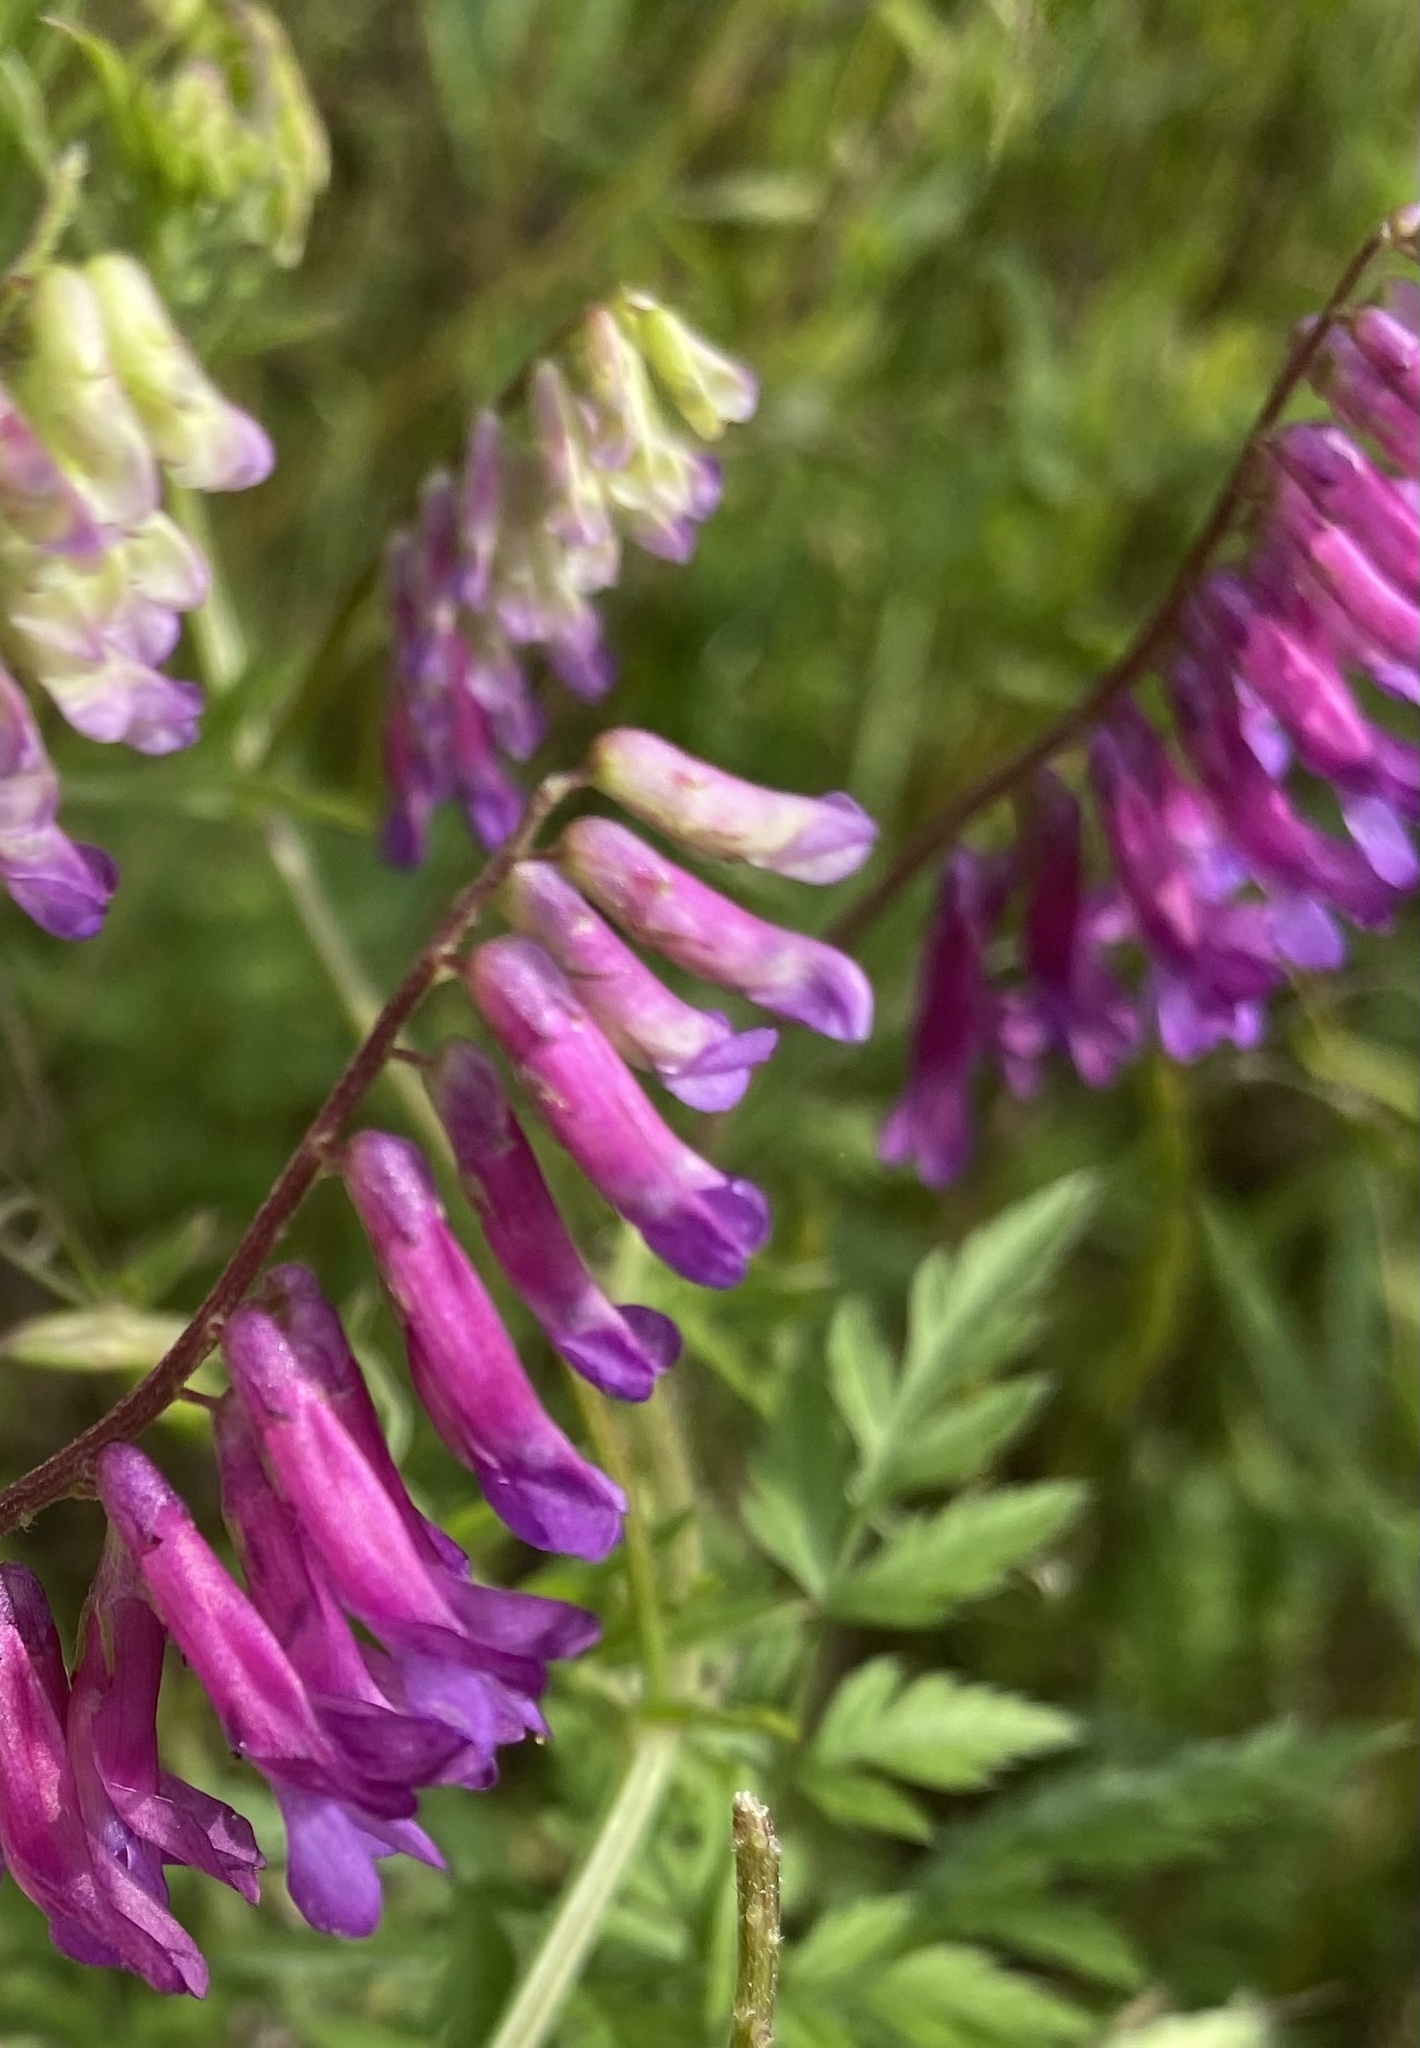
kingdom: Plantae
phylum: Tracheophyta
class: Magnoliopsida
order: Fabales
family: Fabaceae
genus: Vicia
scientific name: Vicia villosa
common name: Fodder vetch
